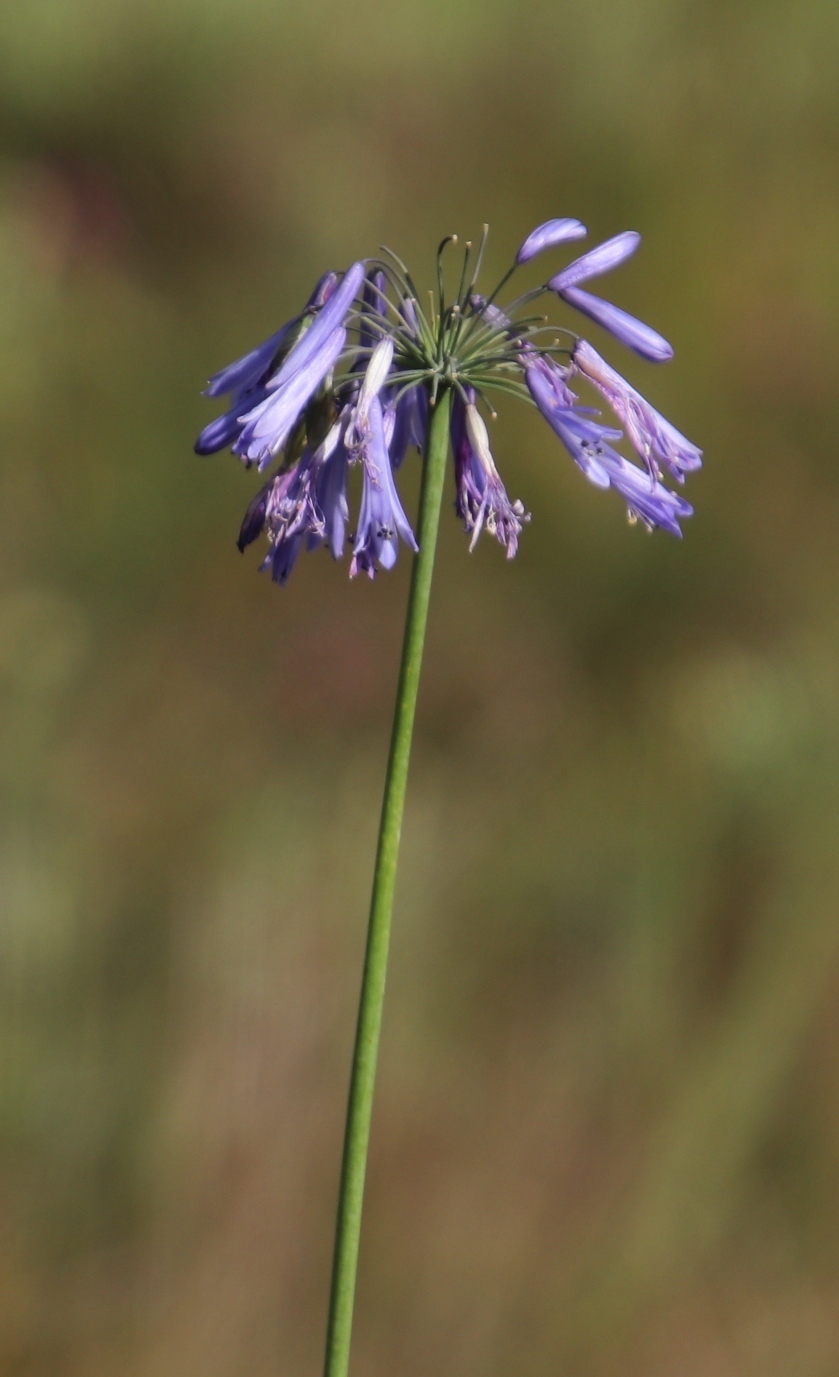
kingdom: Plantae
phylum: Tracheophyta
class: Liliopsida
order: Asparagales
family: Amaryllidaceae
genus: Agapanthus
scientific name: Agapanthus inapertus
